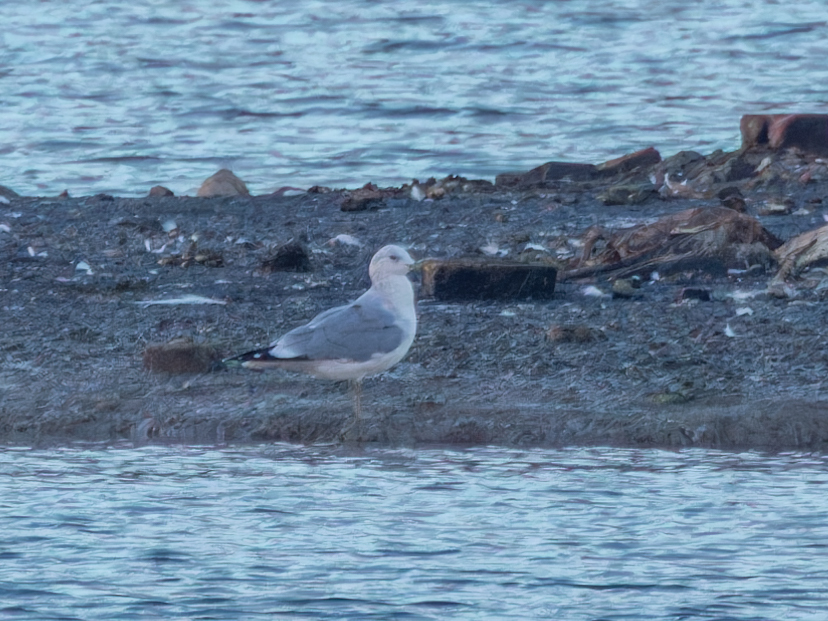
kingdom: Animalia
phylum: Chordata
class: Aves
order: Charadriiformes
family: Laridae
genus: Larus
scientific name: Larus canus
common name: Mew gull
